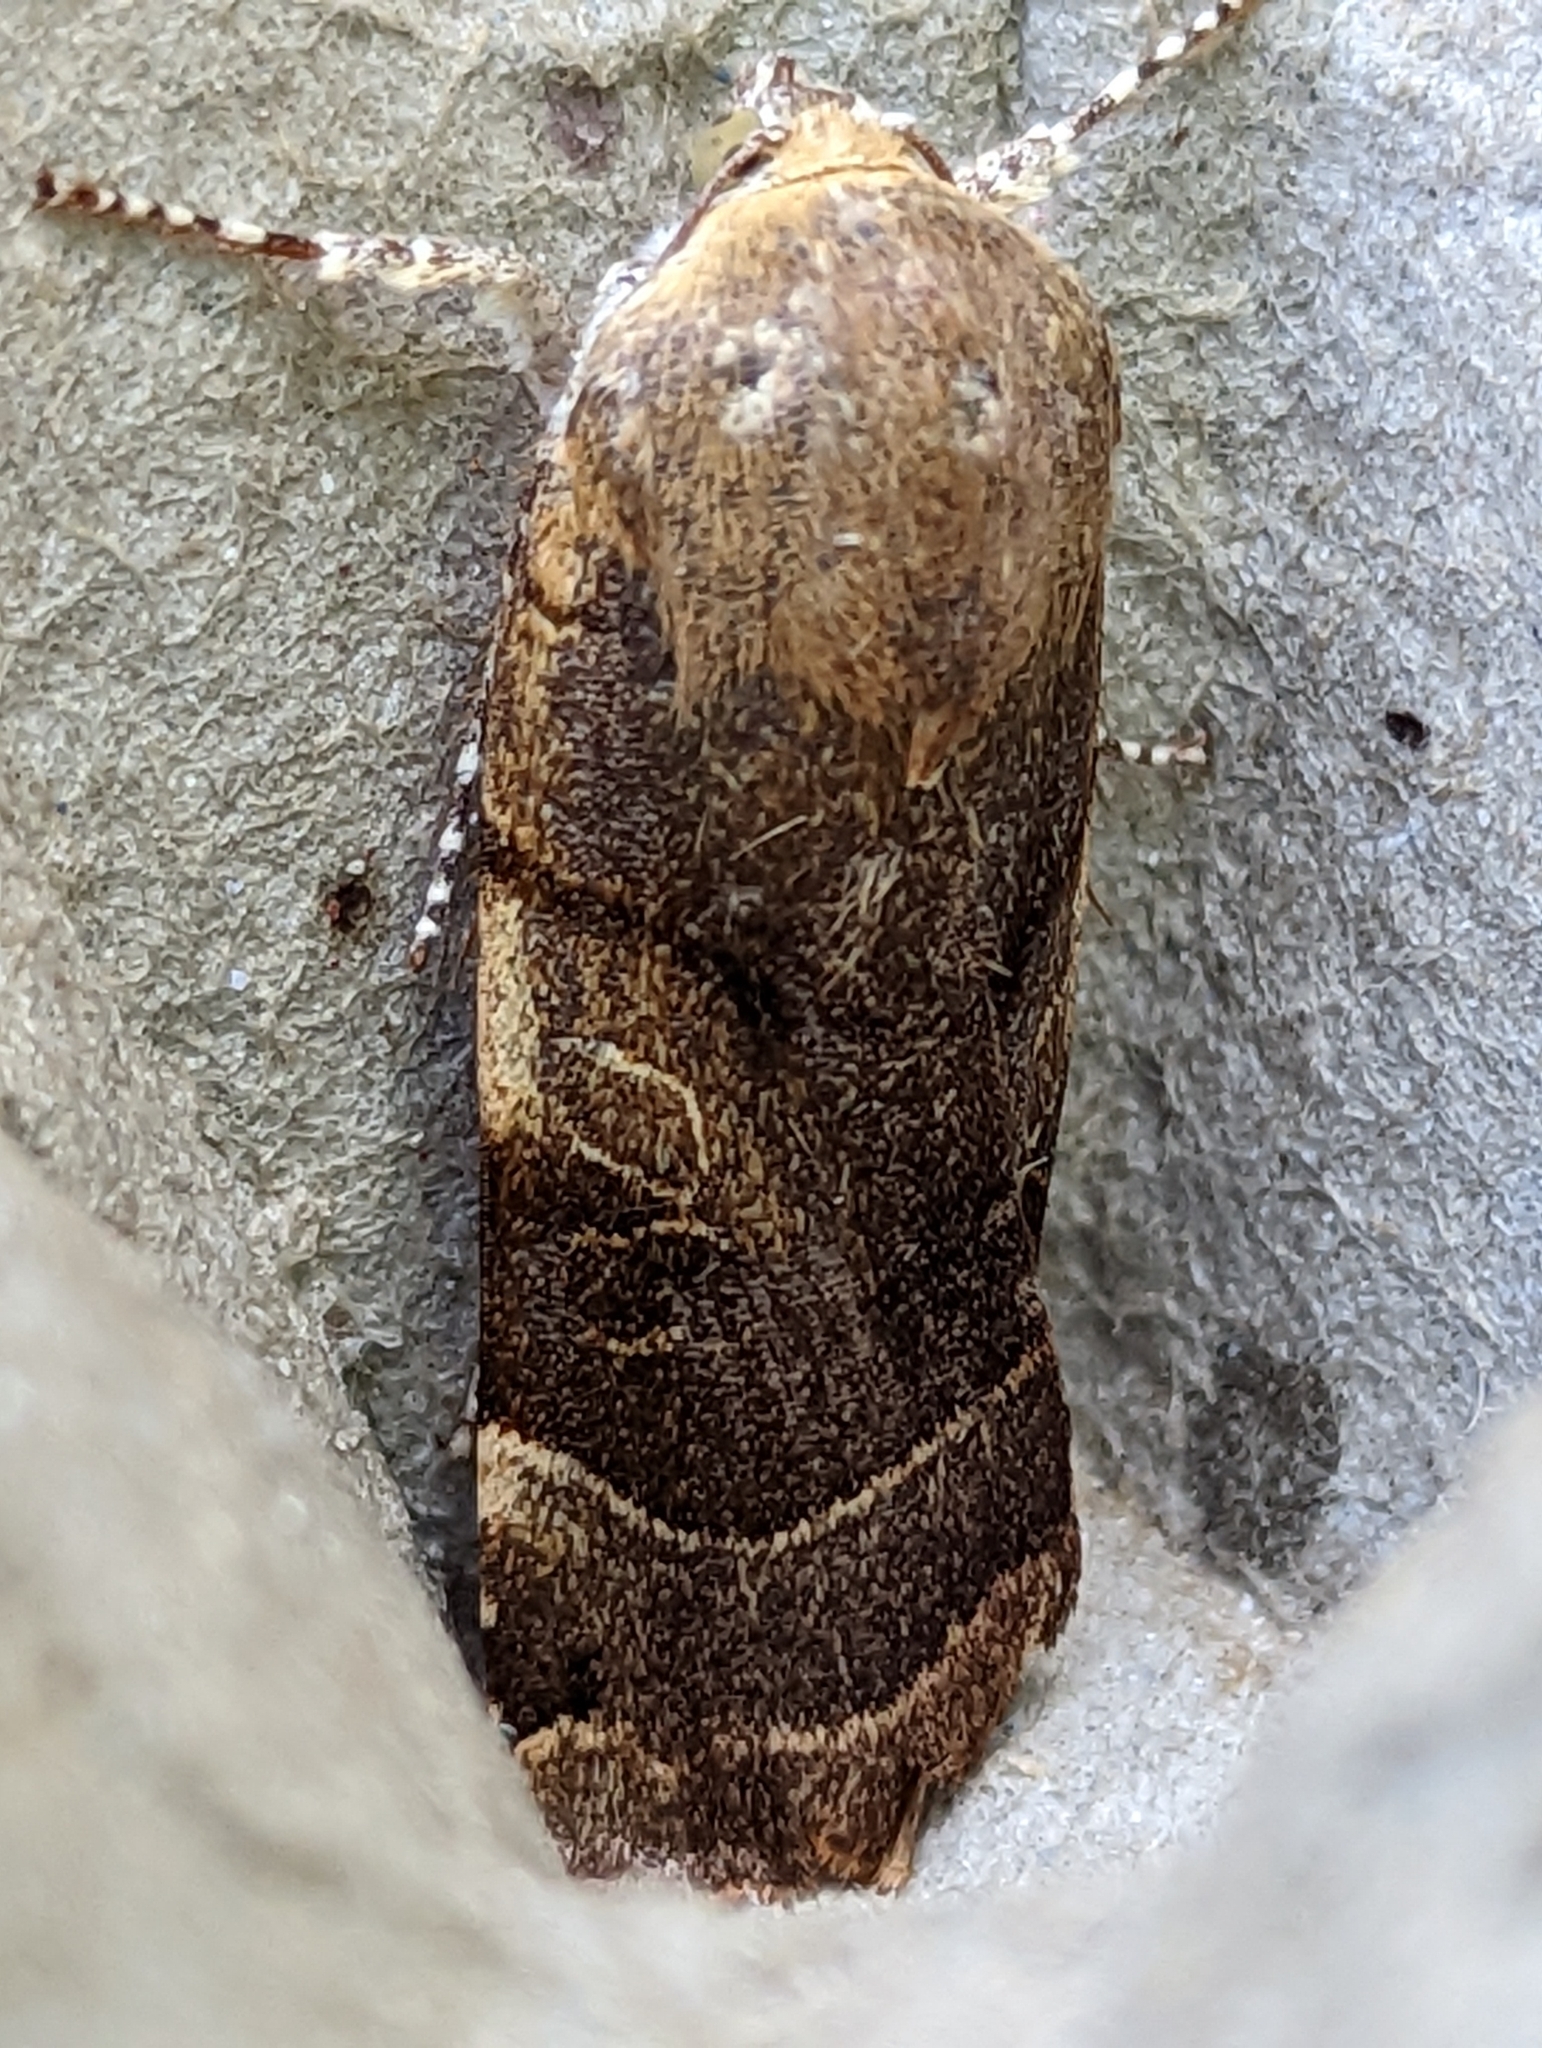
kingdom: Animalia
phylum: Arthropoda
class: Insecta
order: Lepidoptera
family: Noctuidae
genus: Noctua
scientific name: Noctua fimbriata
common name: Broad-bordered yellow underwing
